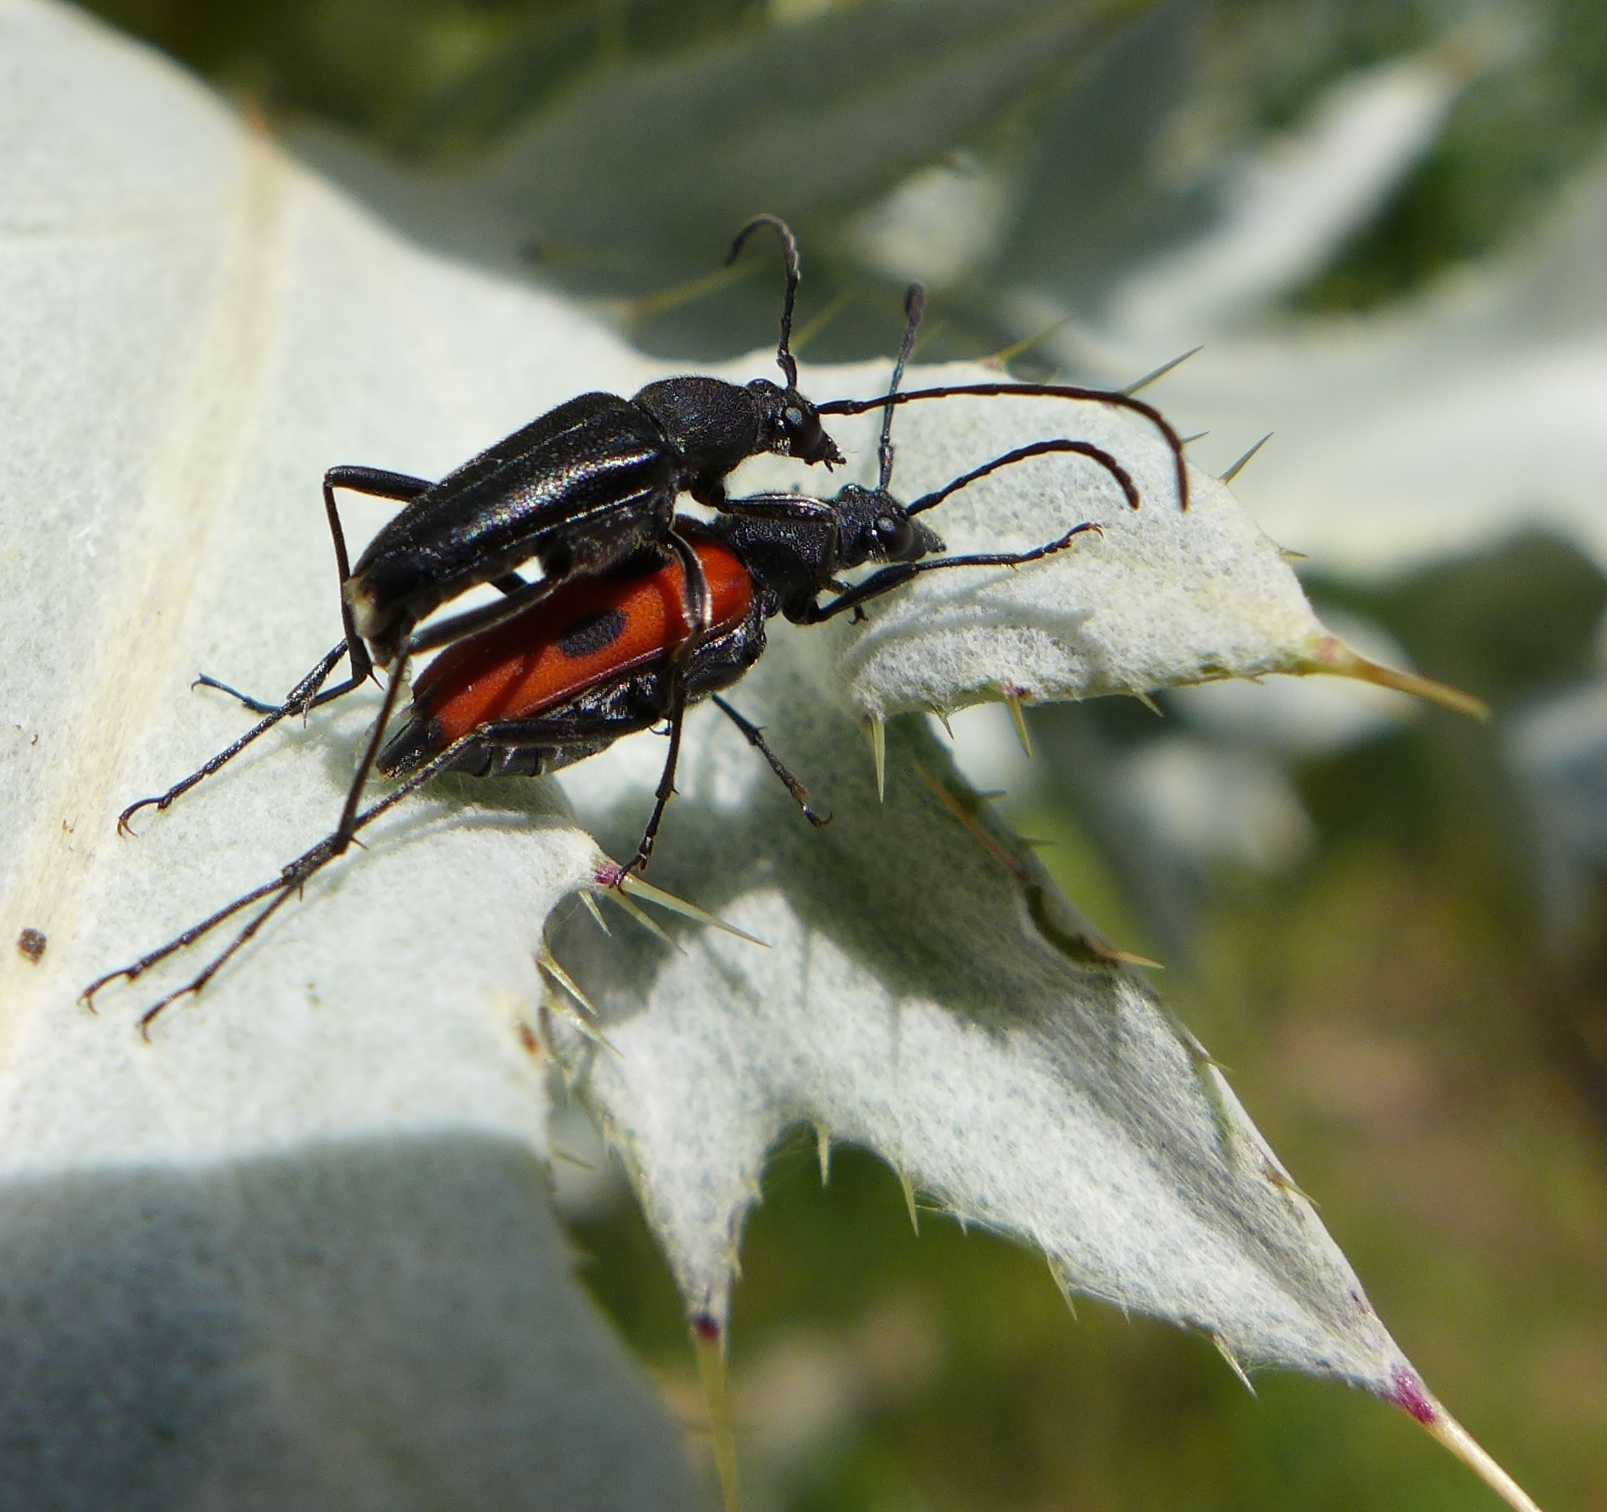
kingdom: Animalia
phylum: Arthropoda
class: Insecta
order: Coleoptera
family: Cerambycidae
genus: Anastrangalia
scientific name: Anastrangalia laetifica
